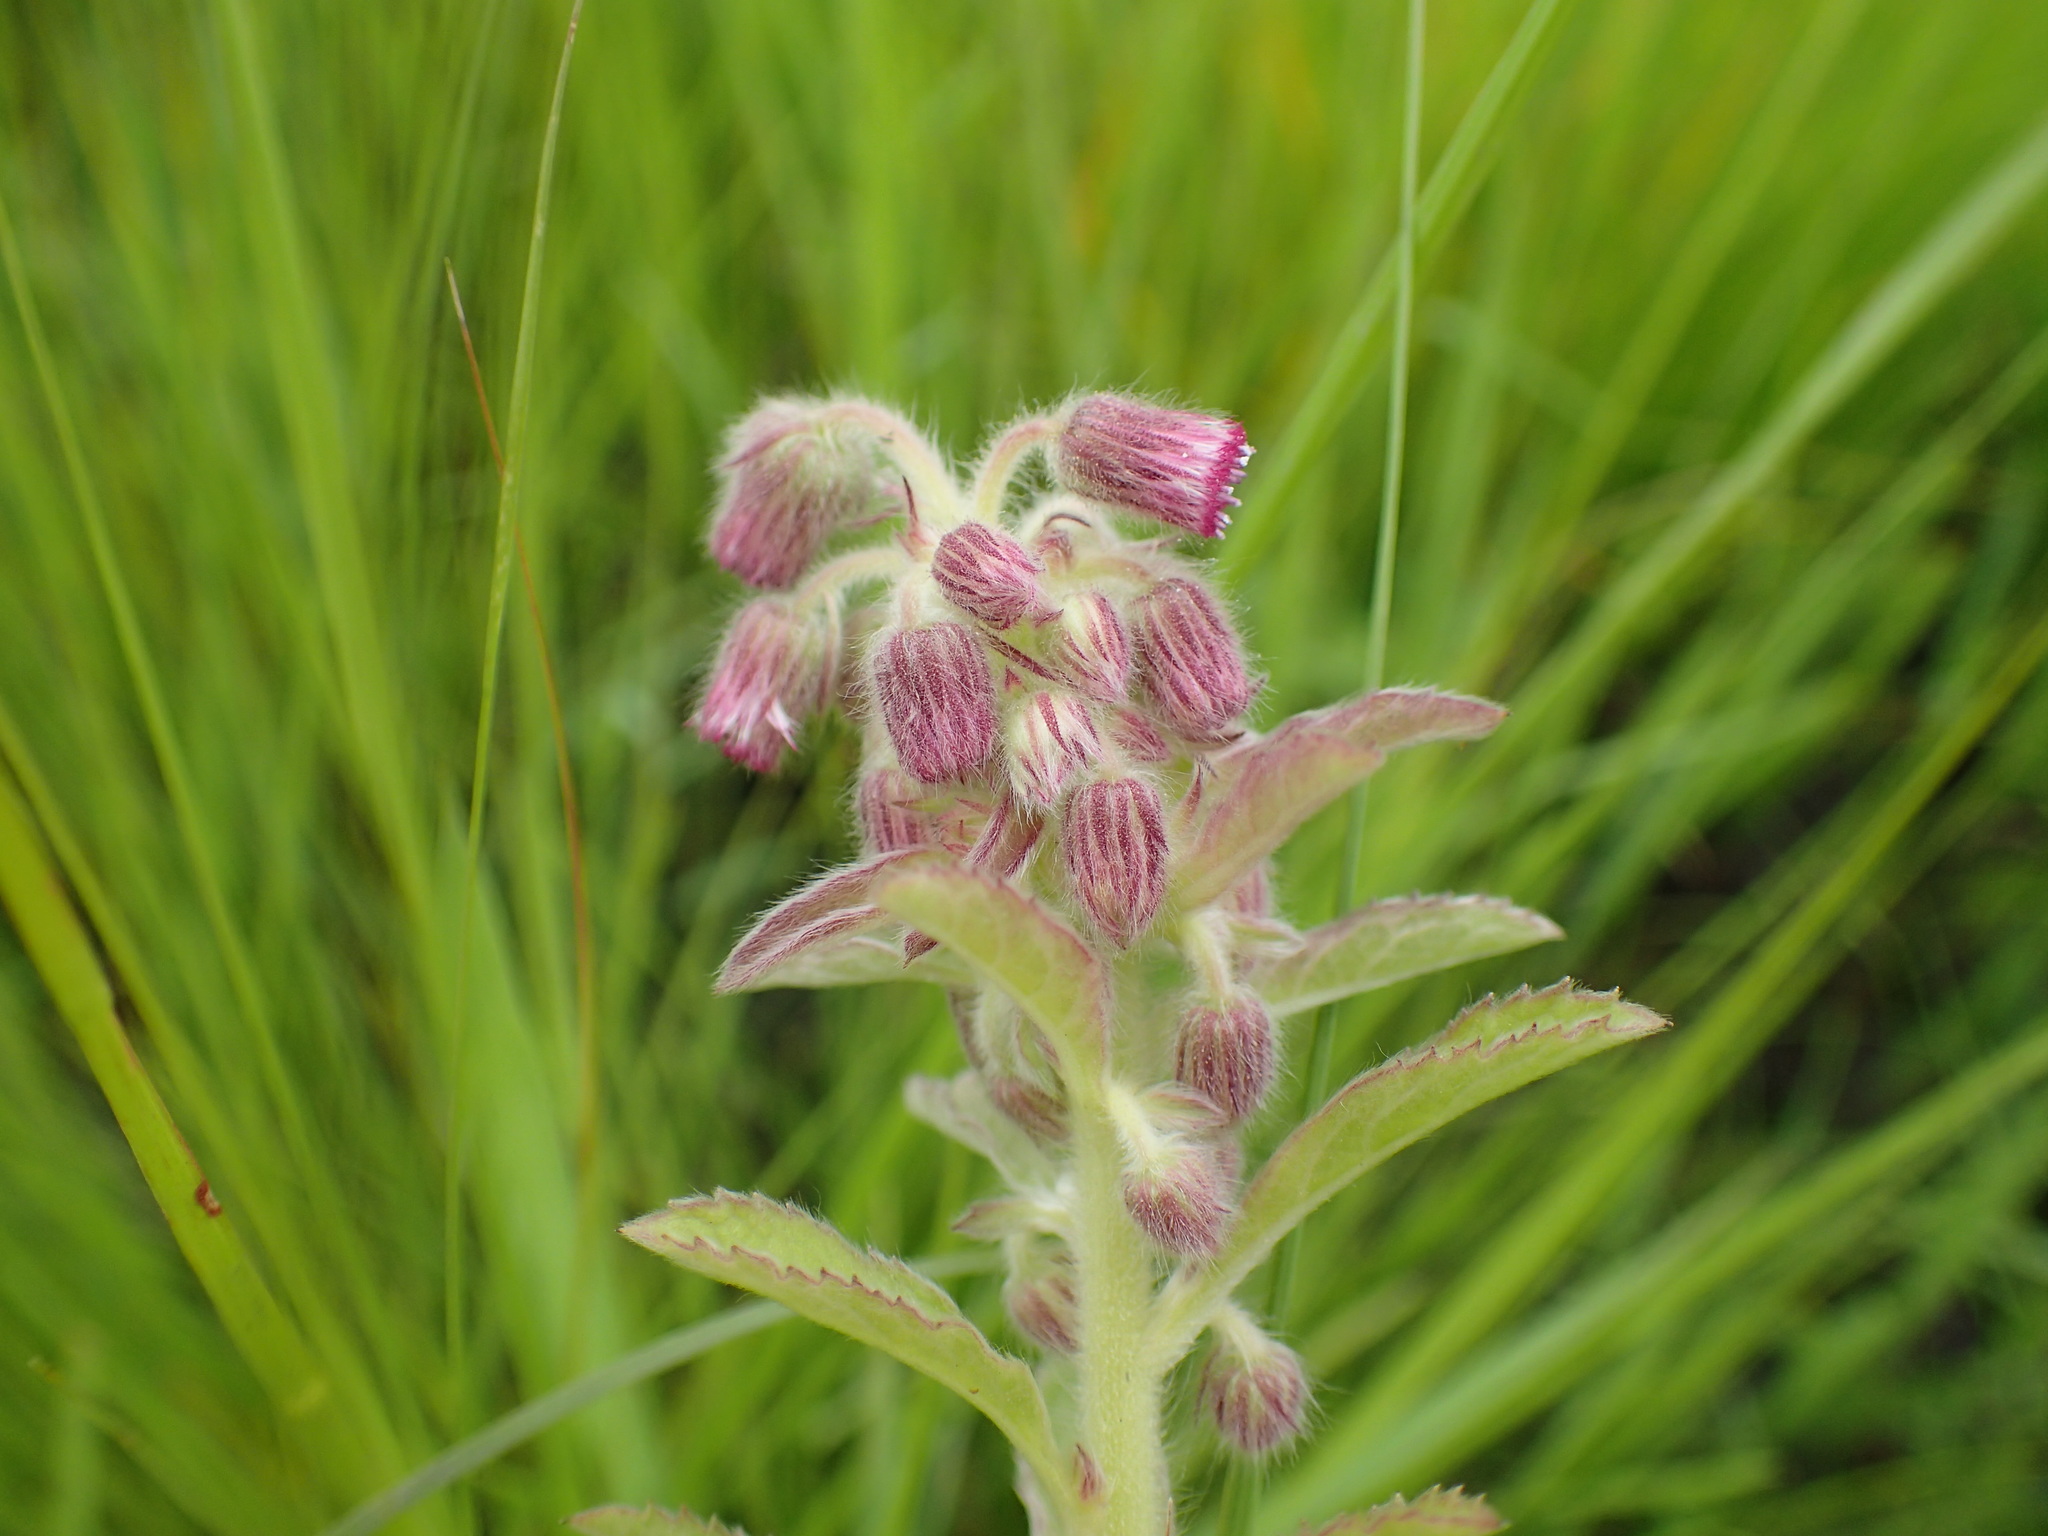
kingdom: Plantae
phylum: Tracheophyta
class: Magnoliopsida
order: Asterales
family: Asteraceae
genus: Blumea
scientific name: Blumea axillaris
